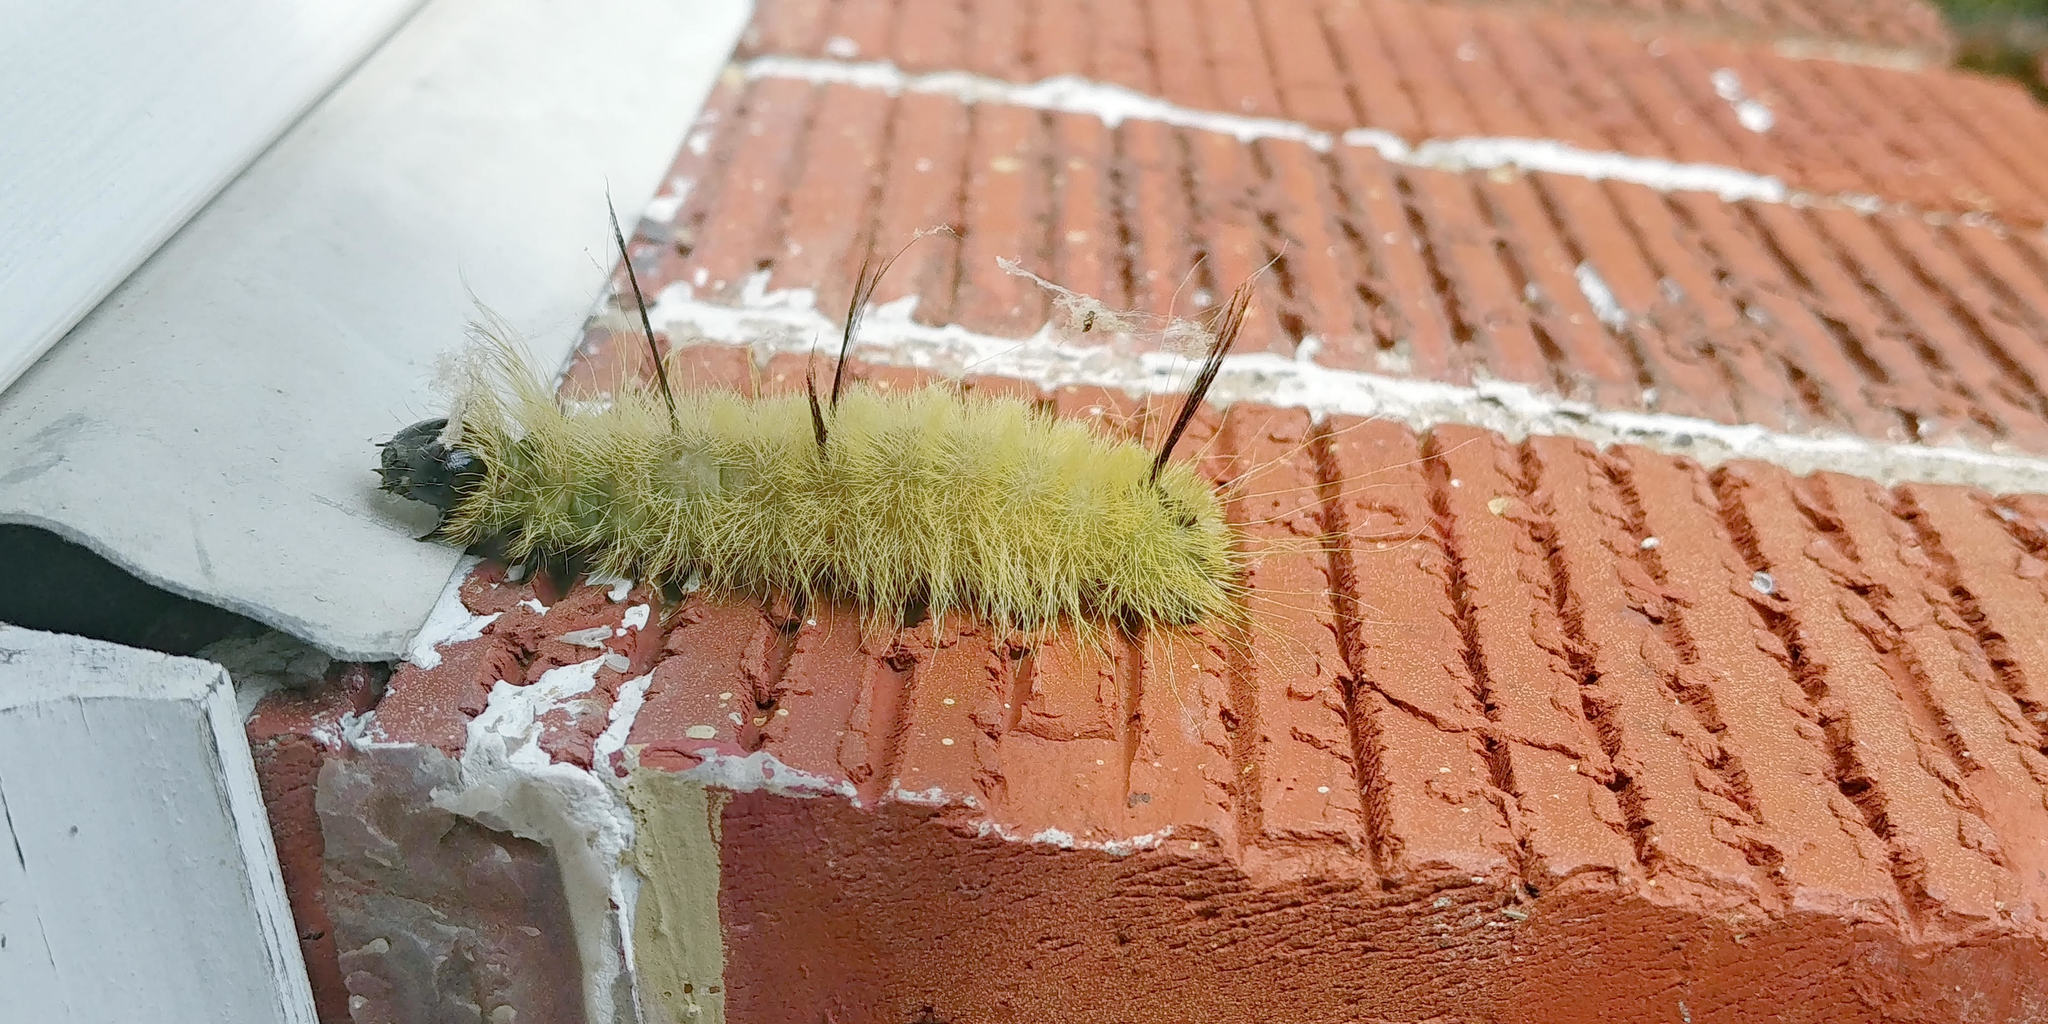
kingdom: Animalia
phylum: Arthropoda
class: Insecta
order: Lepidoptera
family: Noctuidae
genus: Acronicta
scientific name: Acronicta americana
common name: American dagger
